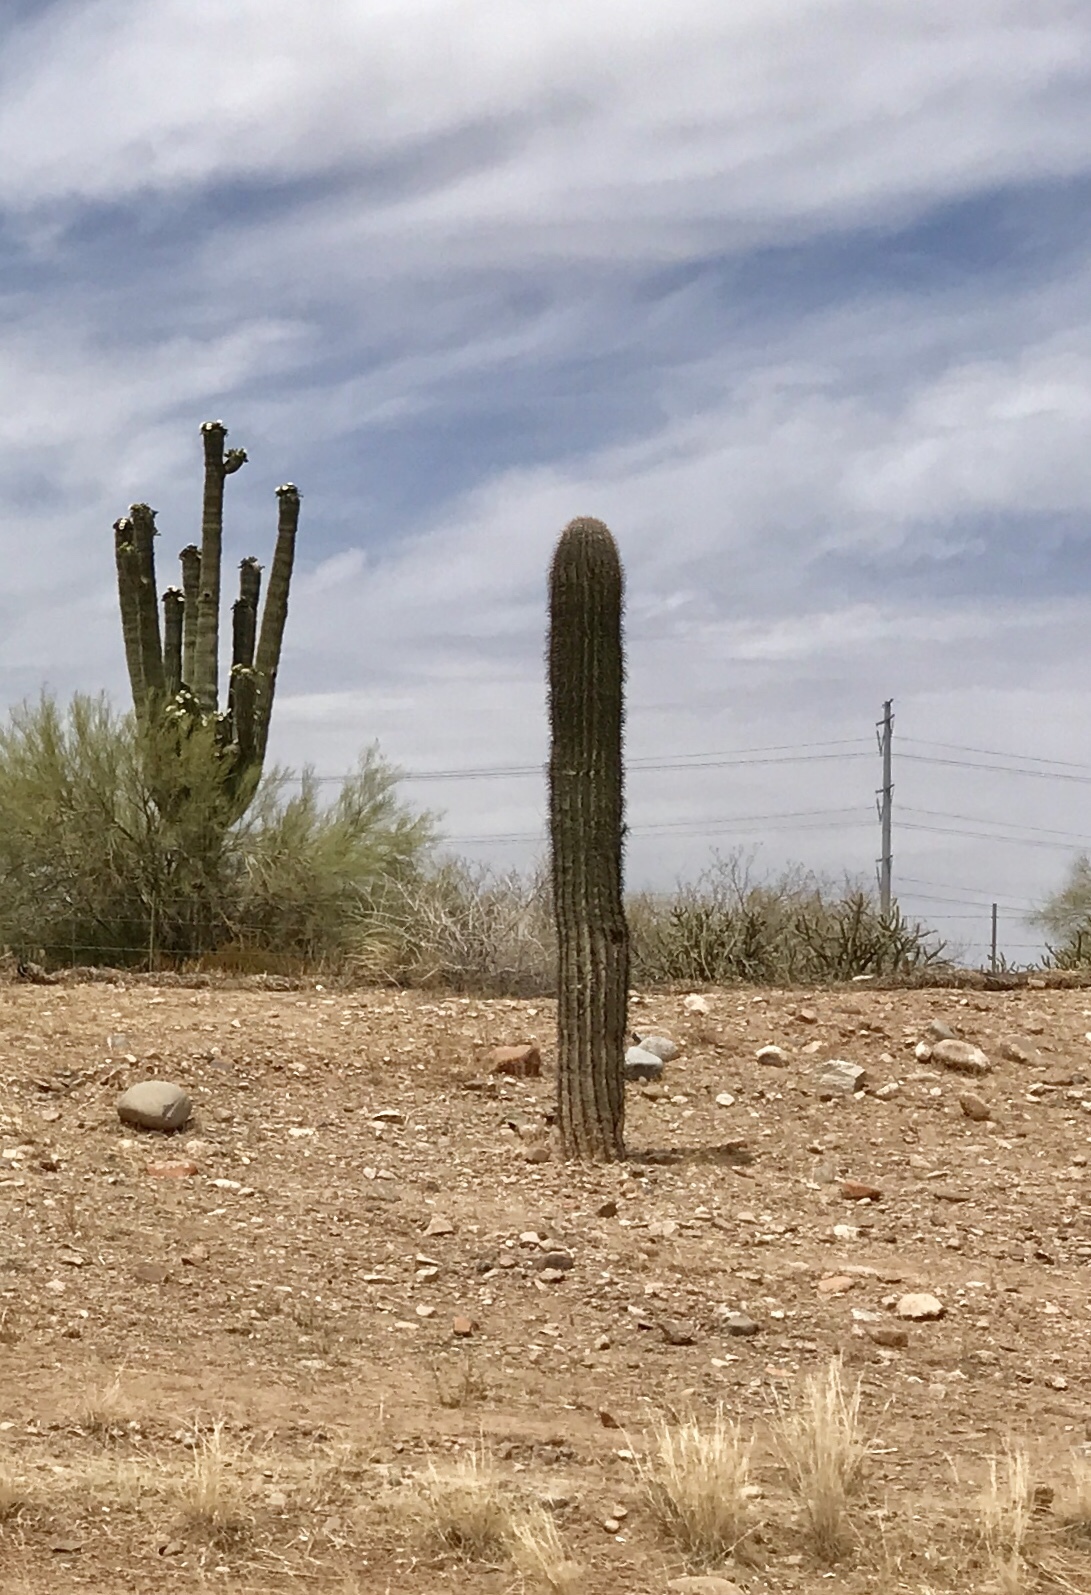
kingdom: Plantae
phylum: Tracheophyta
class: Magnoliopsida
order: Caryophyllales
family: Cactaceae
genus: Carnegiea
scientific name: Carnegiea gigantea
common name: Saguaro
